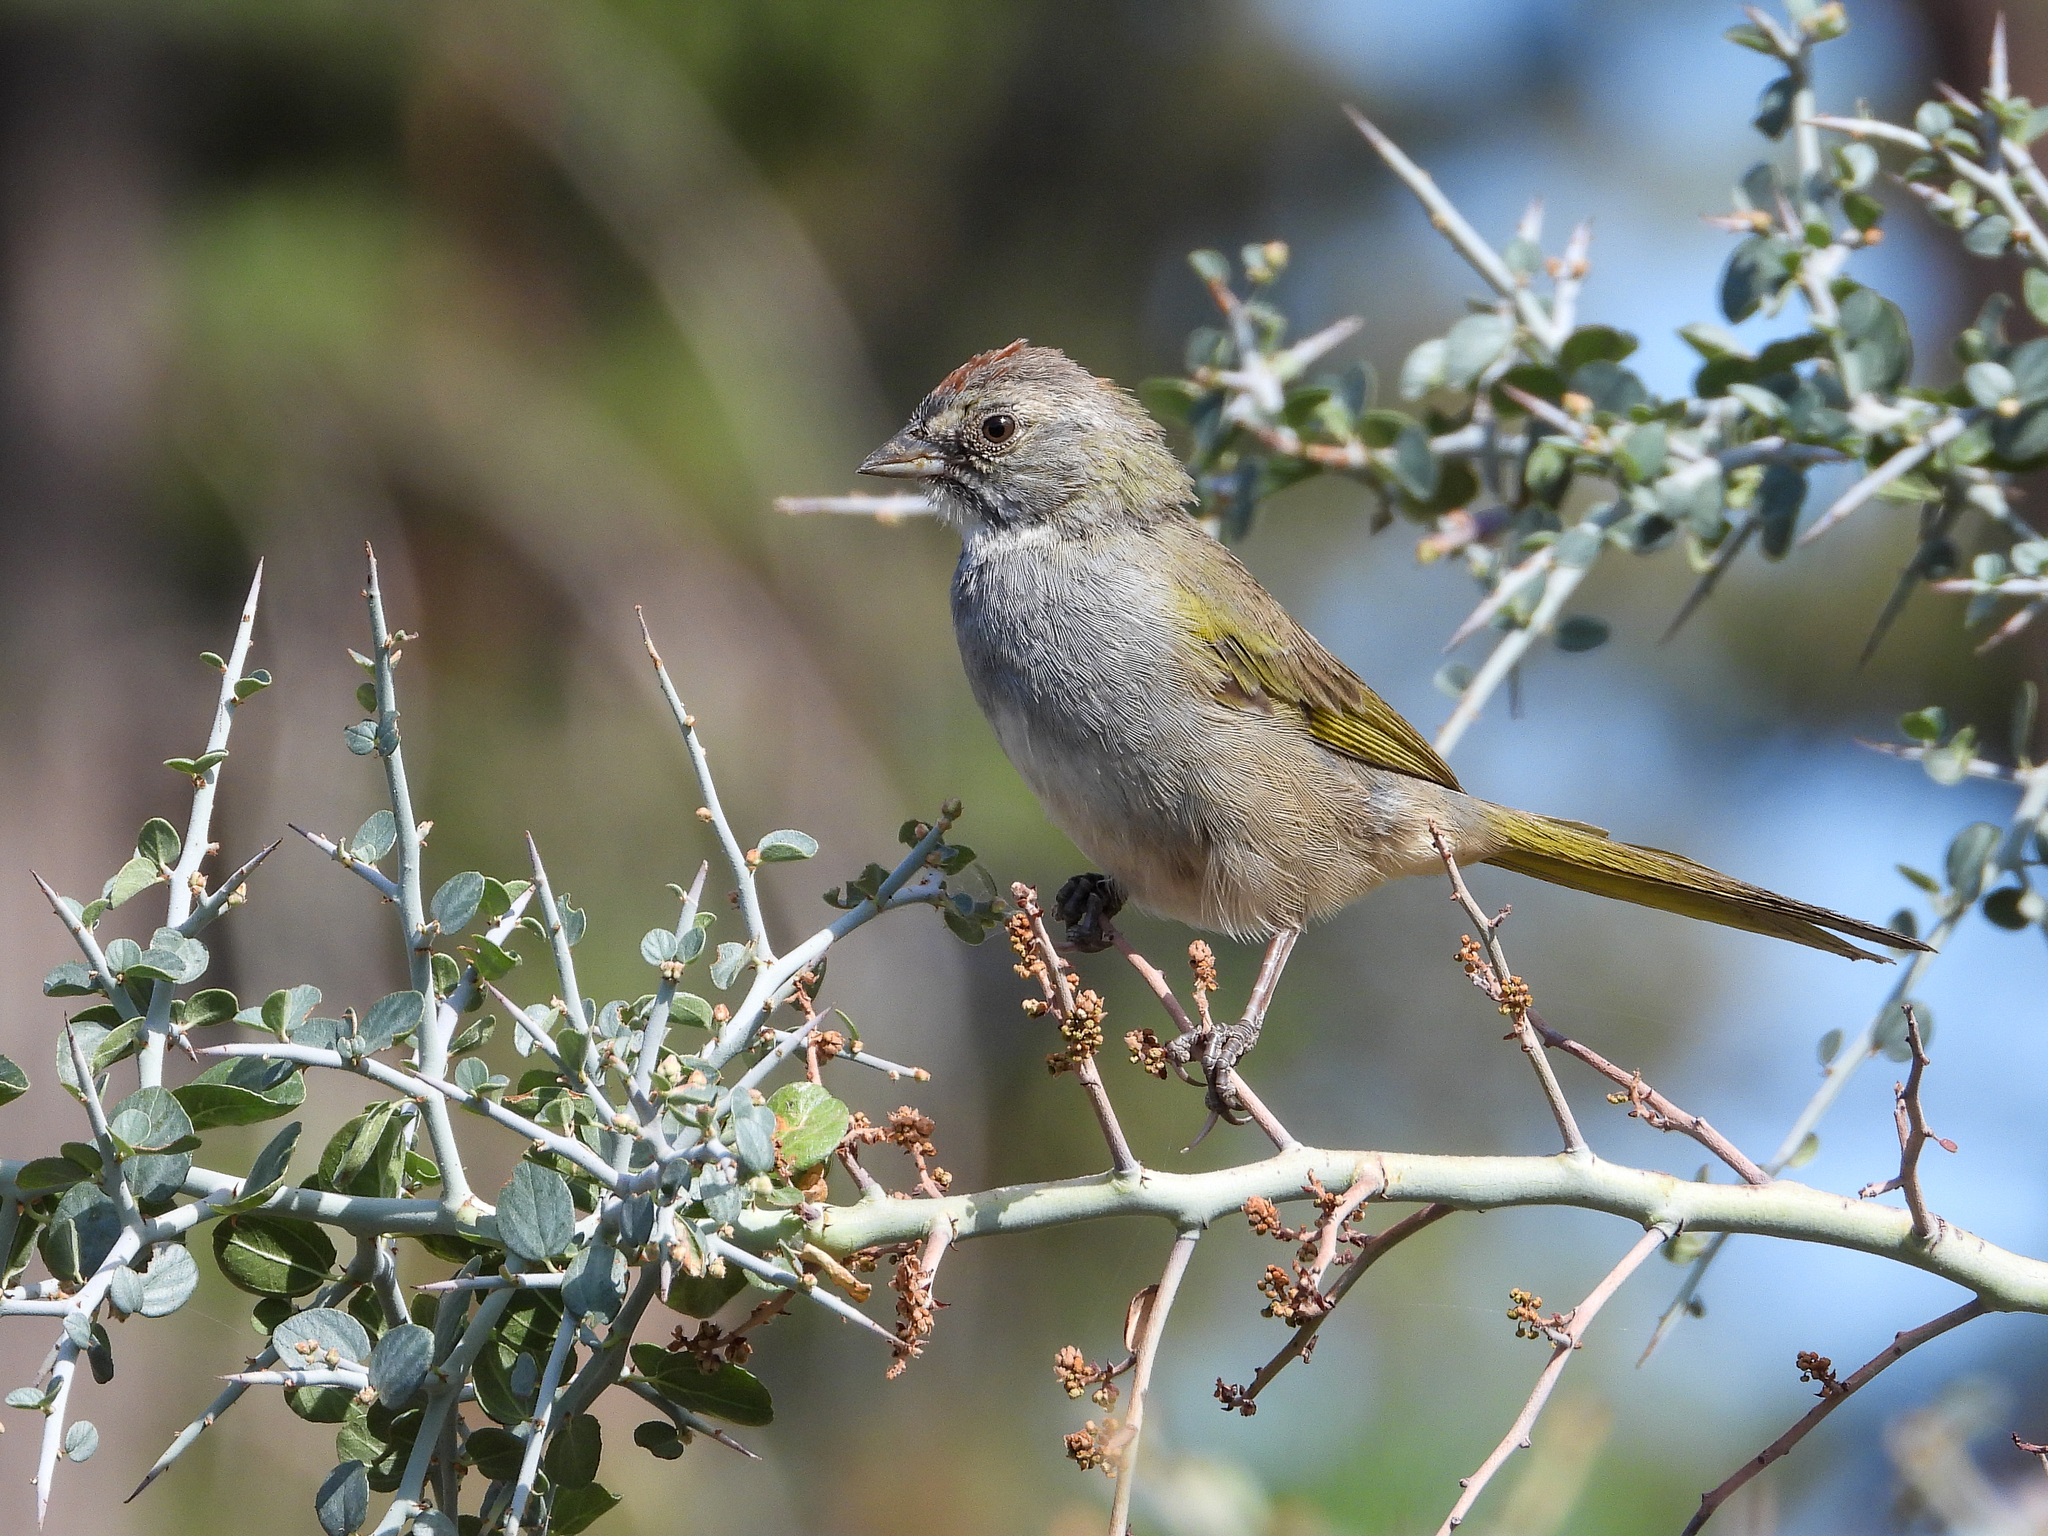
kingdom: Animalia
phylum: Chordata
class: Aves
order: Passeriformes
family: Passerellidae
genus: Pipilo
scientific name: Pipilo chlorurus
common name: Green-tailed towhee
